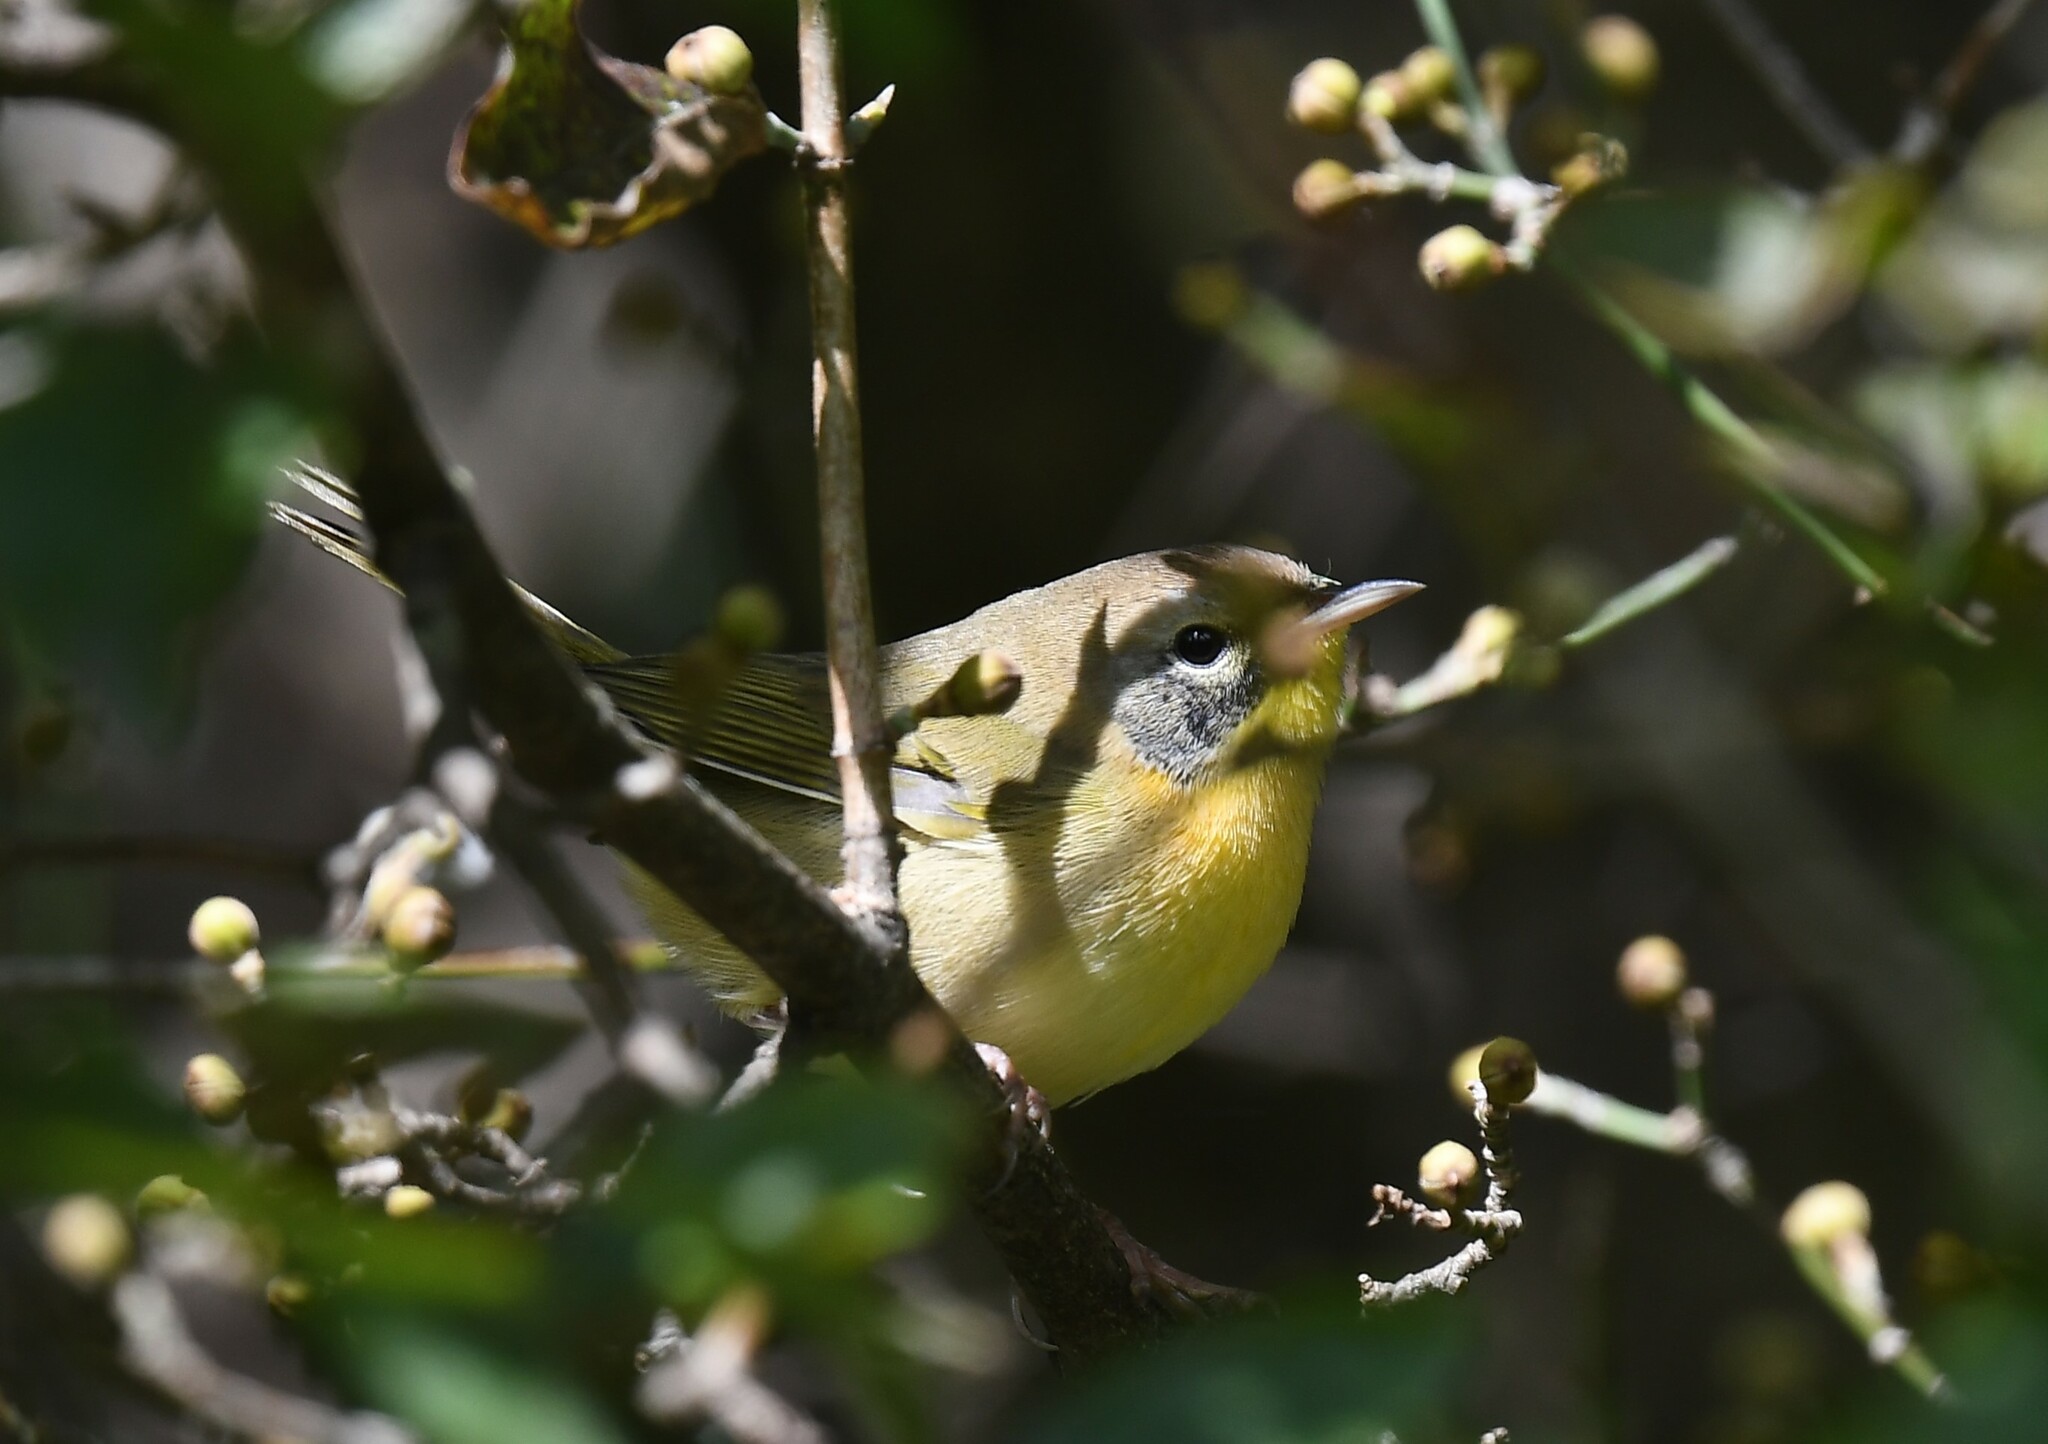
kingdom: Animalia
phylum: Chordata
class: Aves
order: Passeriformes
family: Parulidae
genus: Geothlypis
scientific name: Geothlypis trichas
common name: Common yellowthroat
